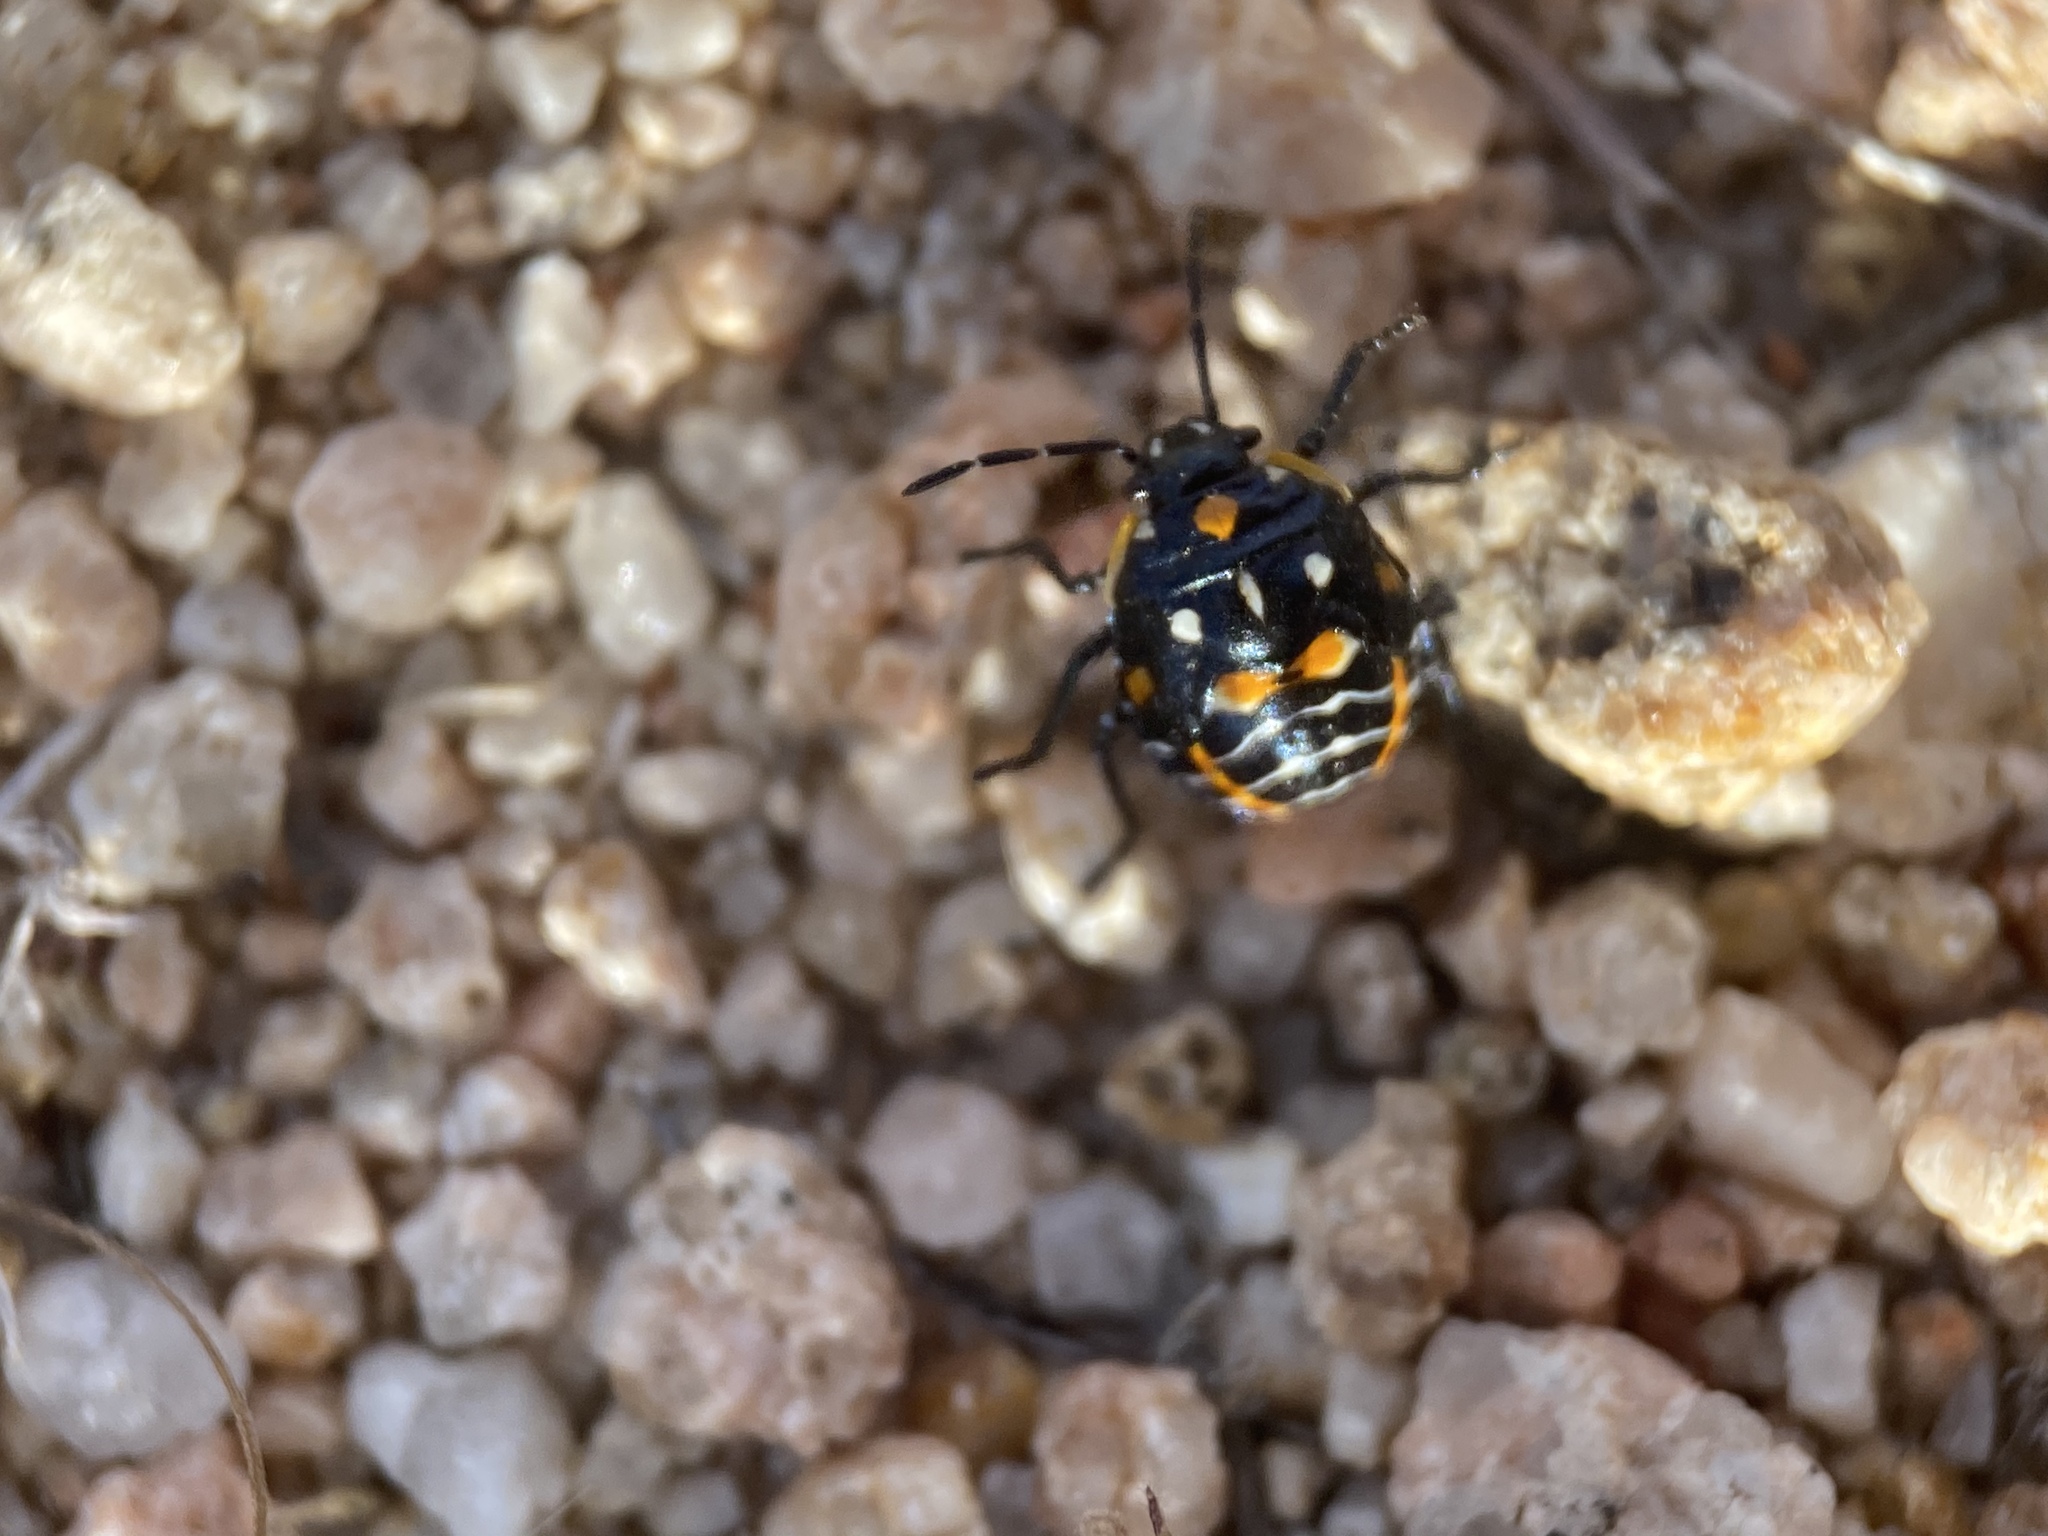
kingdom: Animalia
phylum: Arthropoda
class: Insecta
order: Hemiptera
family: Pentatomidae
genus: Murgantia
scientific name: Murgantia histrionica
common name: Harlequin bug
